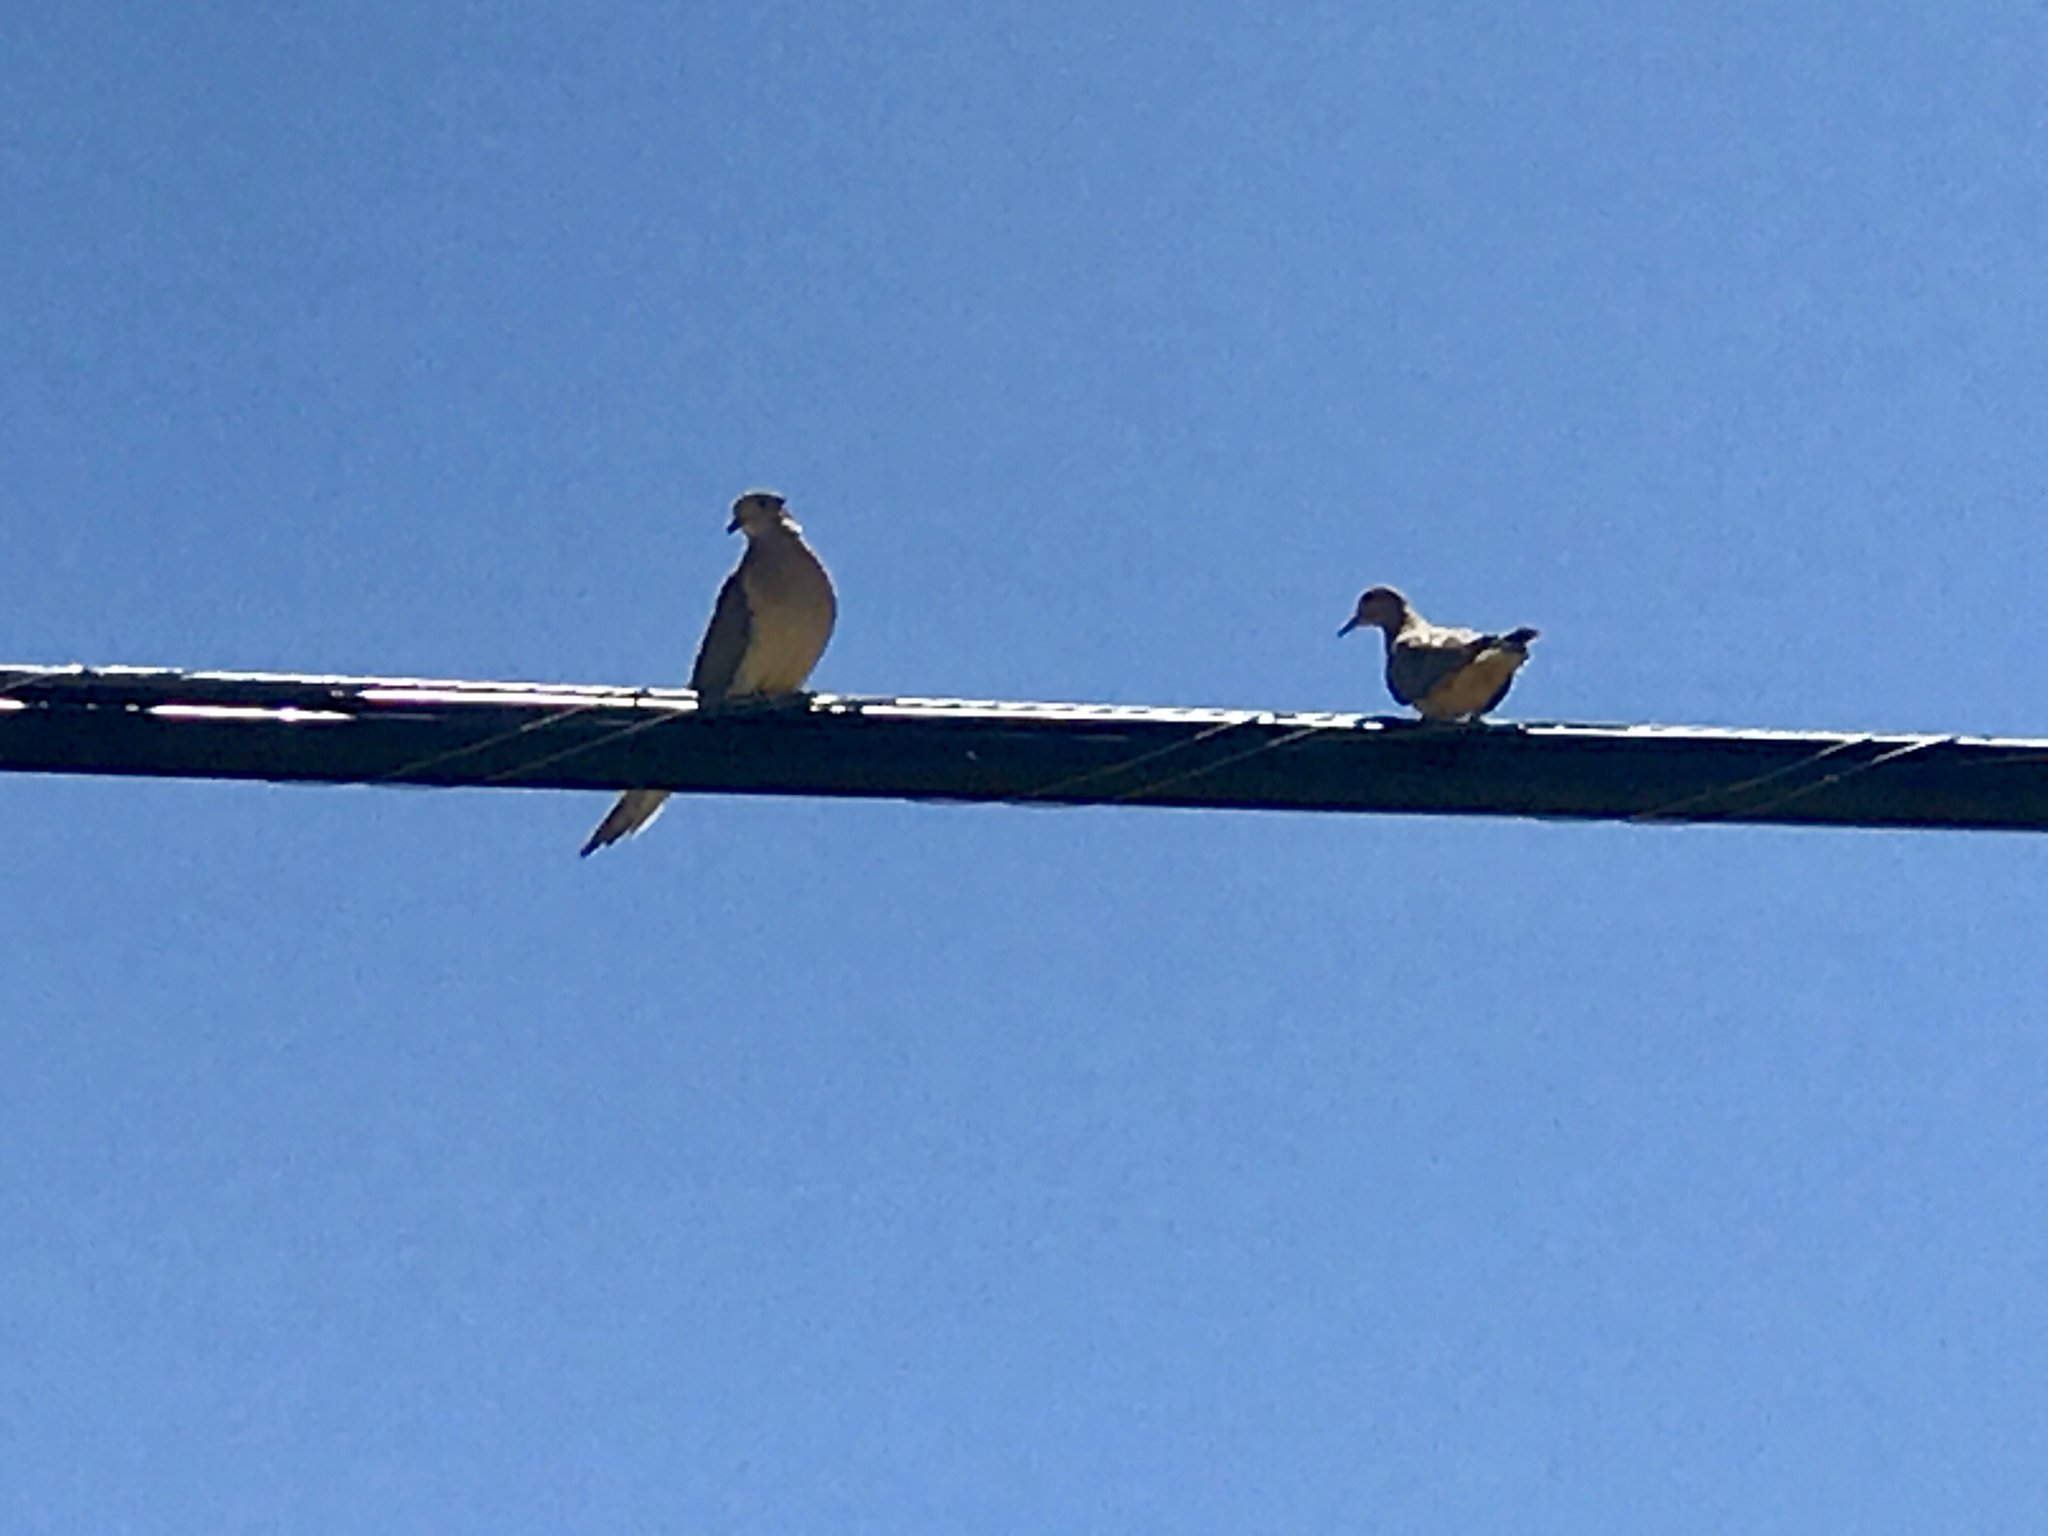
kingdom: Animalia
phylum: Chordata
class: Aves
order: Columbiformes
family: Columbidae
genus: Zenaida
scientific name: Zenaida macroura
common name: Mourning dove
